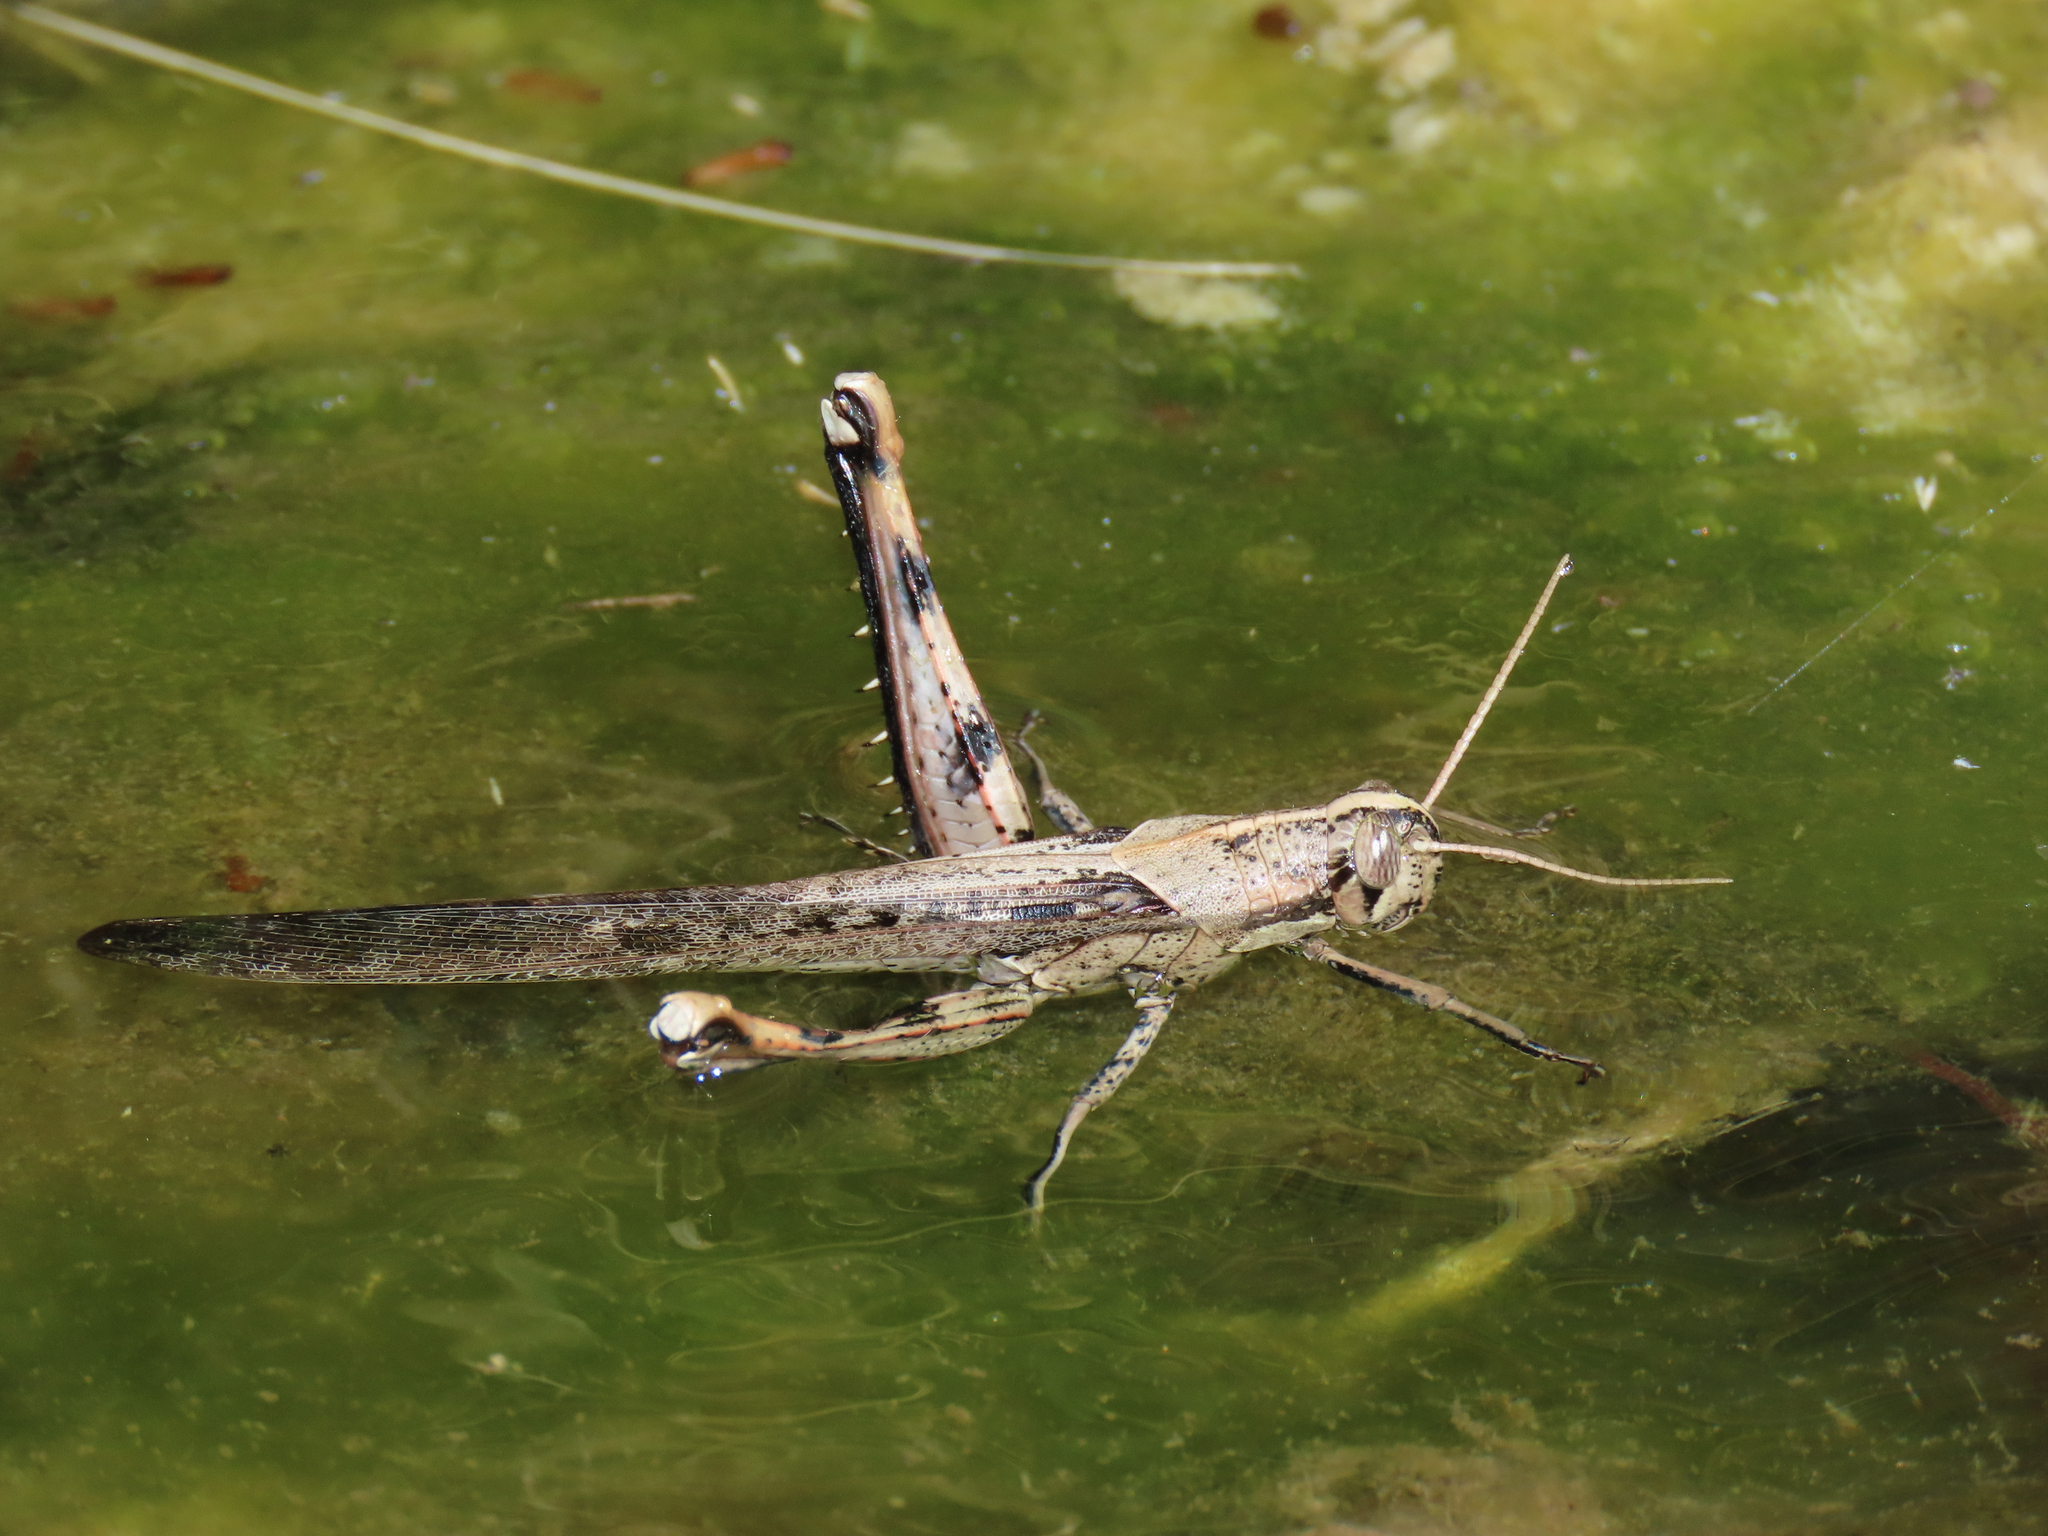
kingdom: Animalia
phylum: Arthropoda
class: Insecta
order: Orthoptera
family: Acrididae
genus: Schistocerca
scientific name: Schistocerca nitens
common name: Vagrant grasshopper
